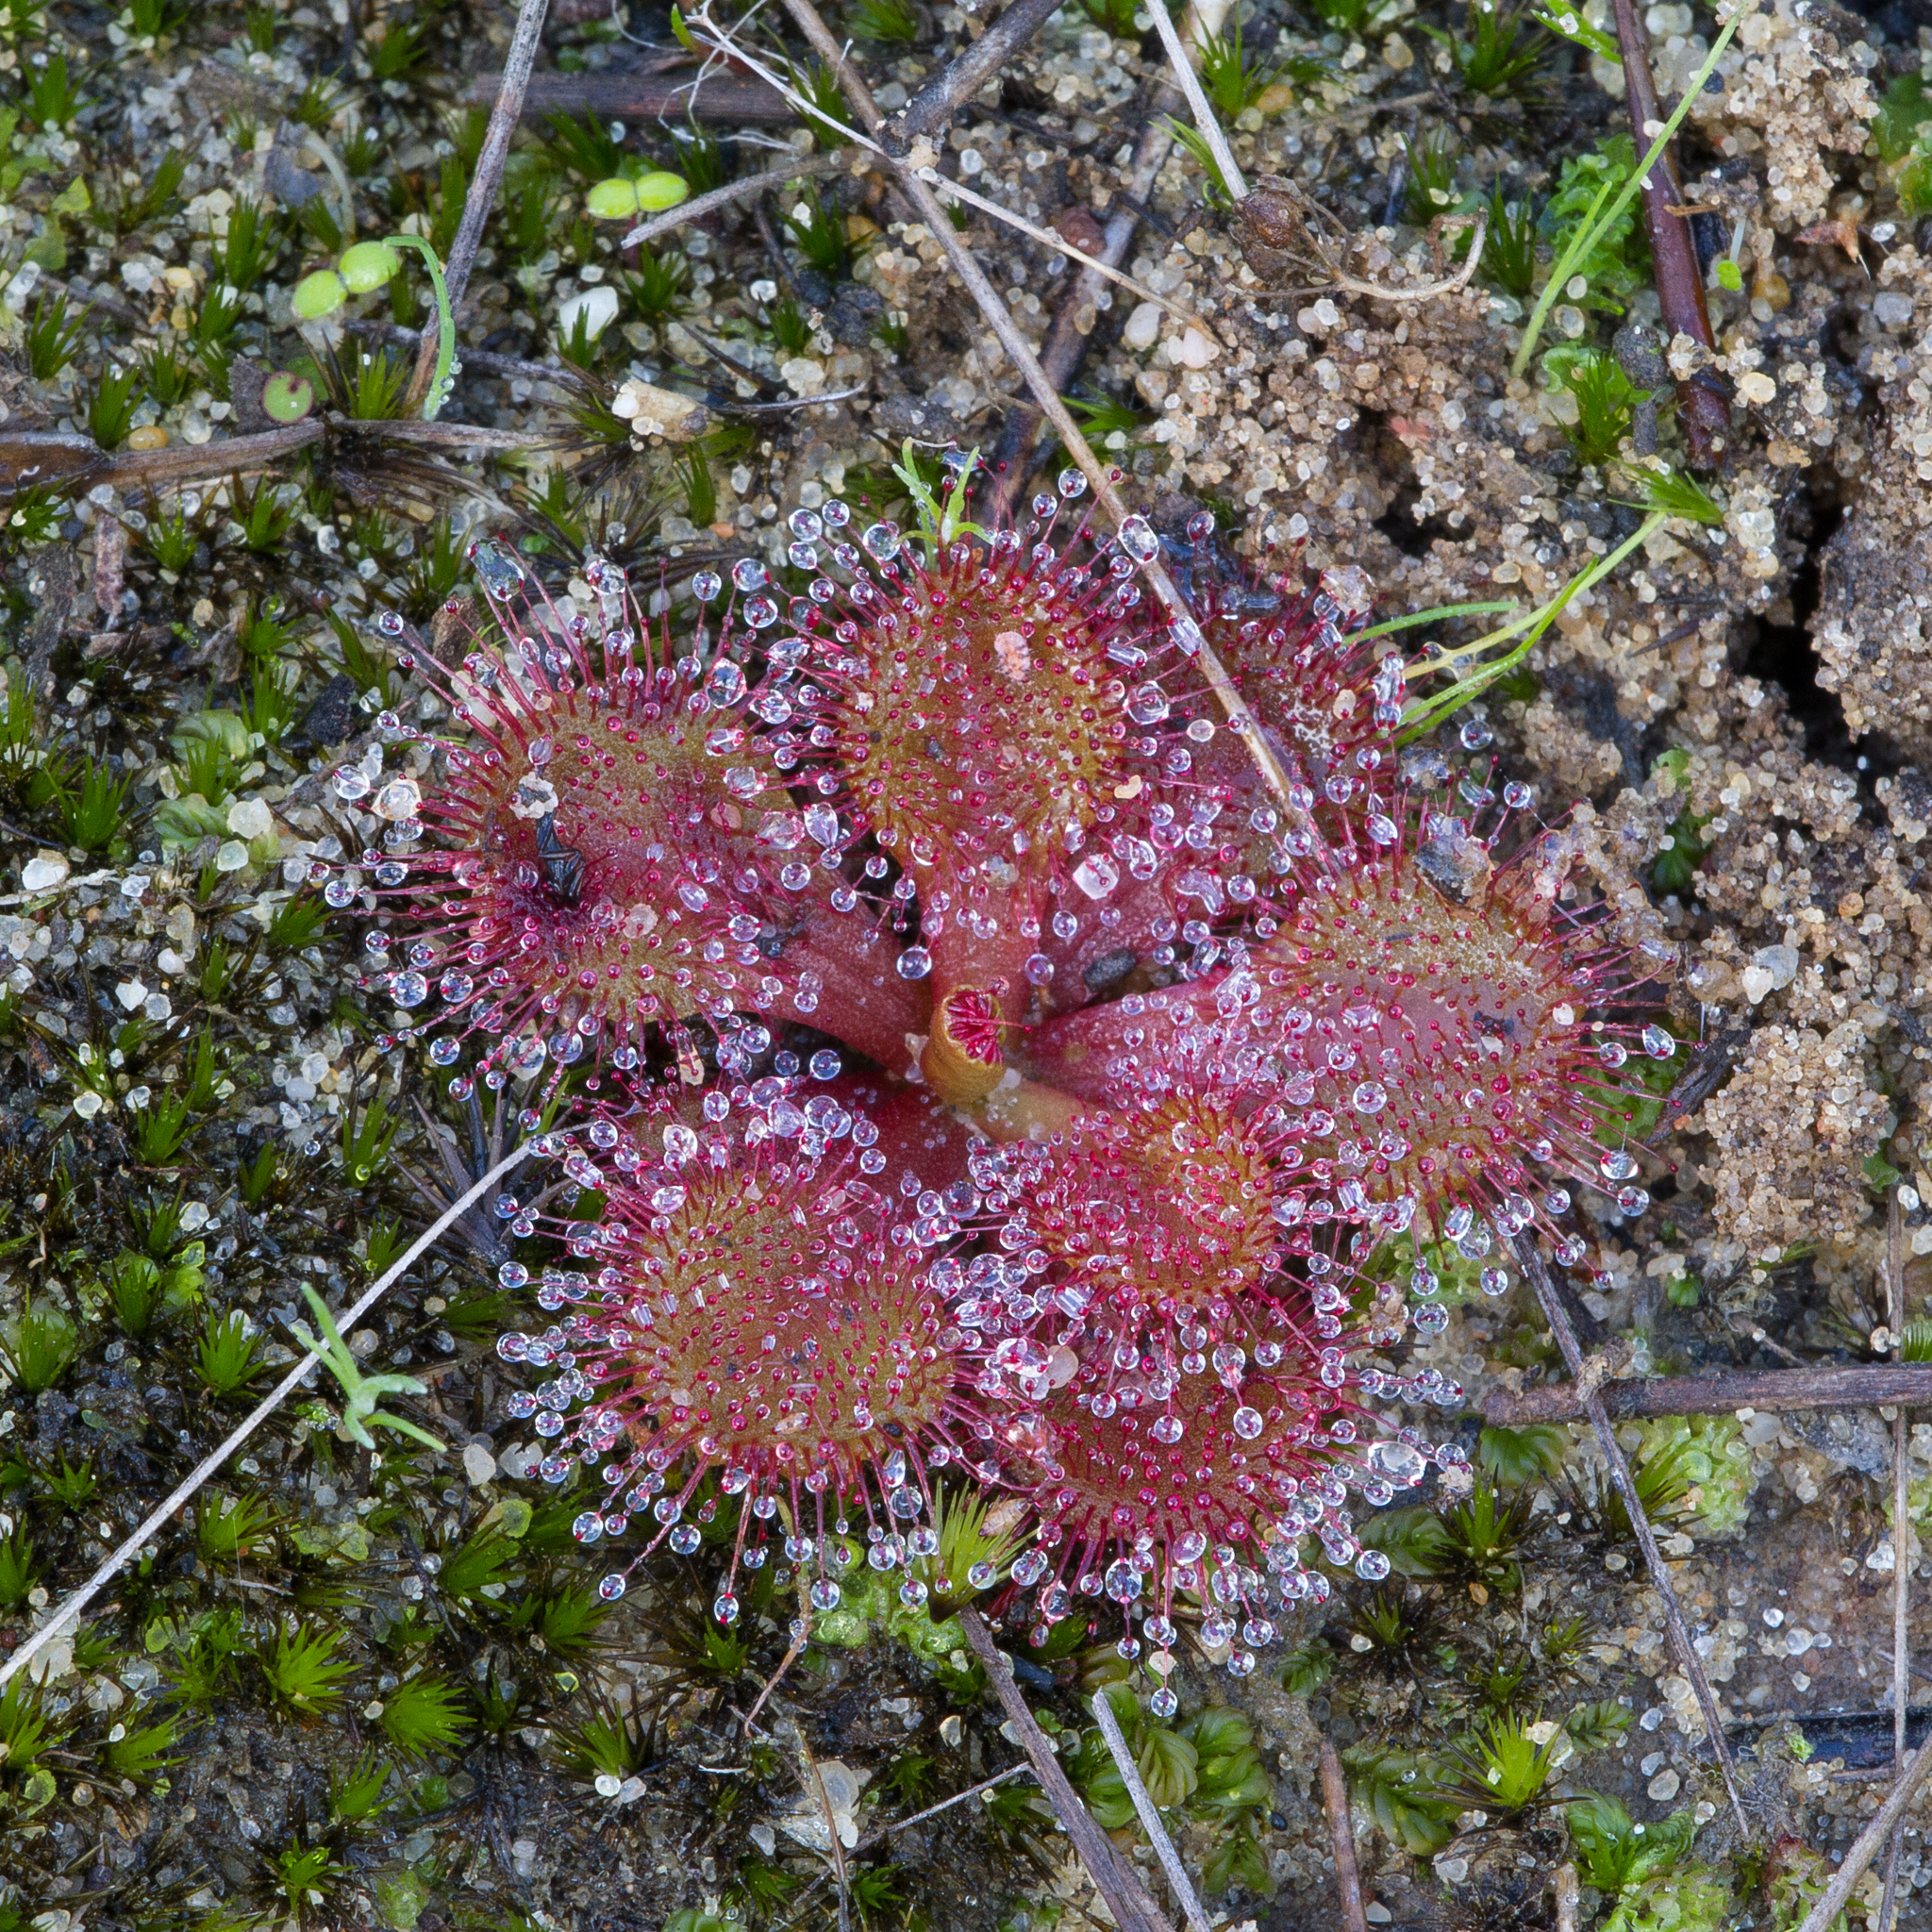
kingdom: Plantae
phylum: Tracheophyta
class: Magnoliopsida
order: Caryophyllales
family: Droseraceae
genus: Drosera
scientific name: Drosera whittakeri
